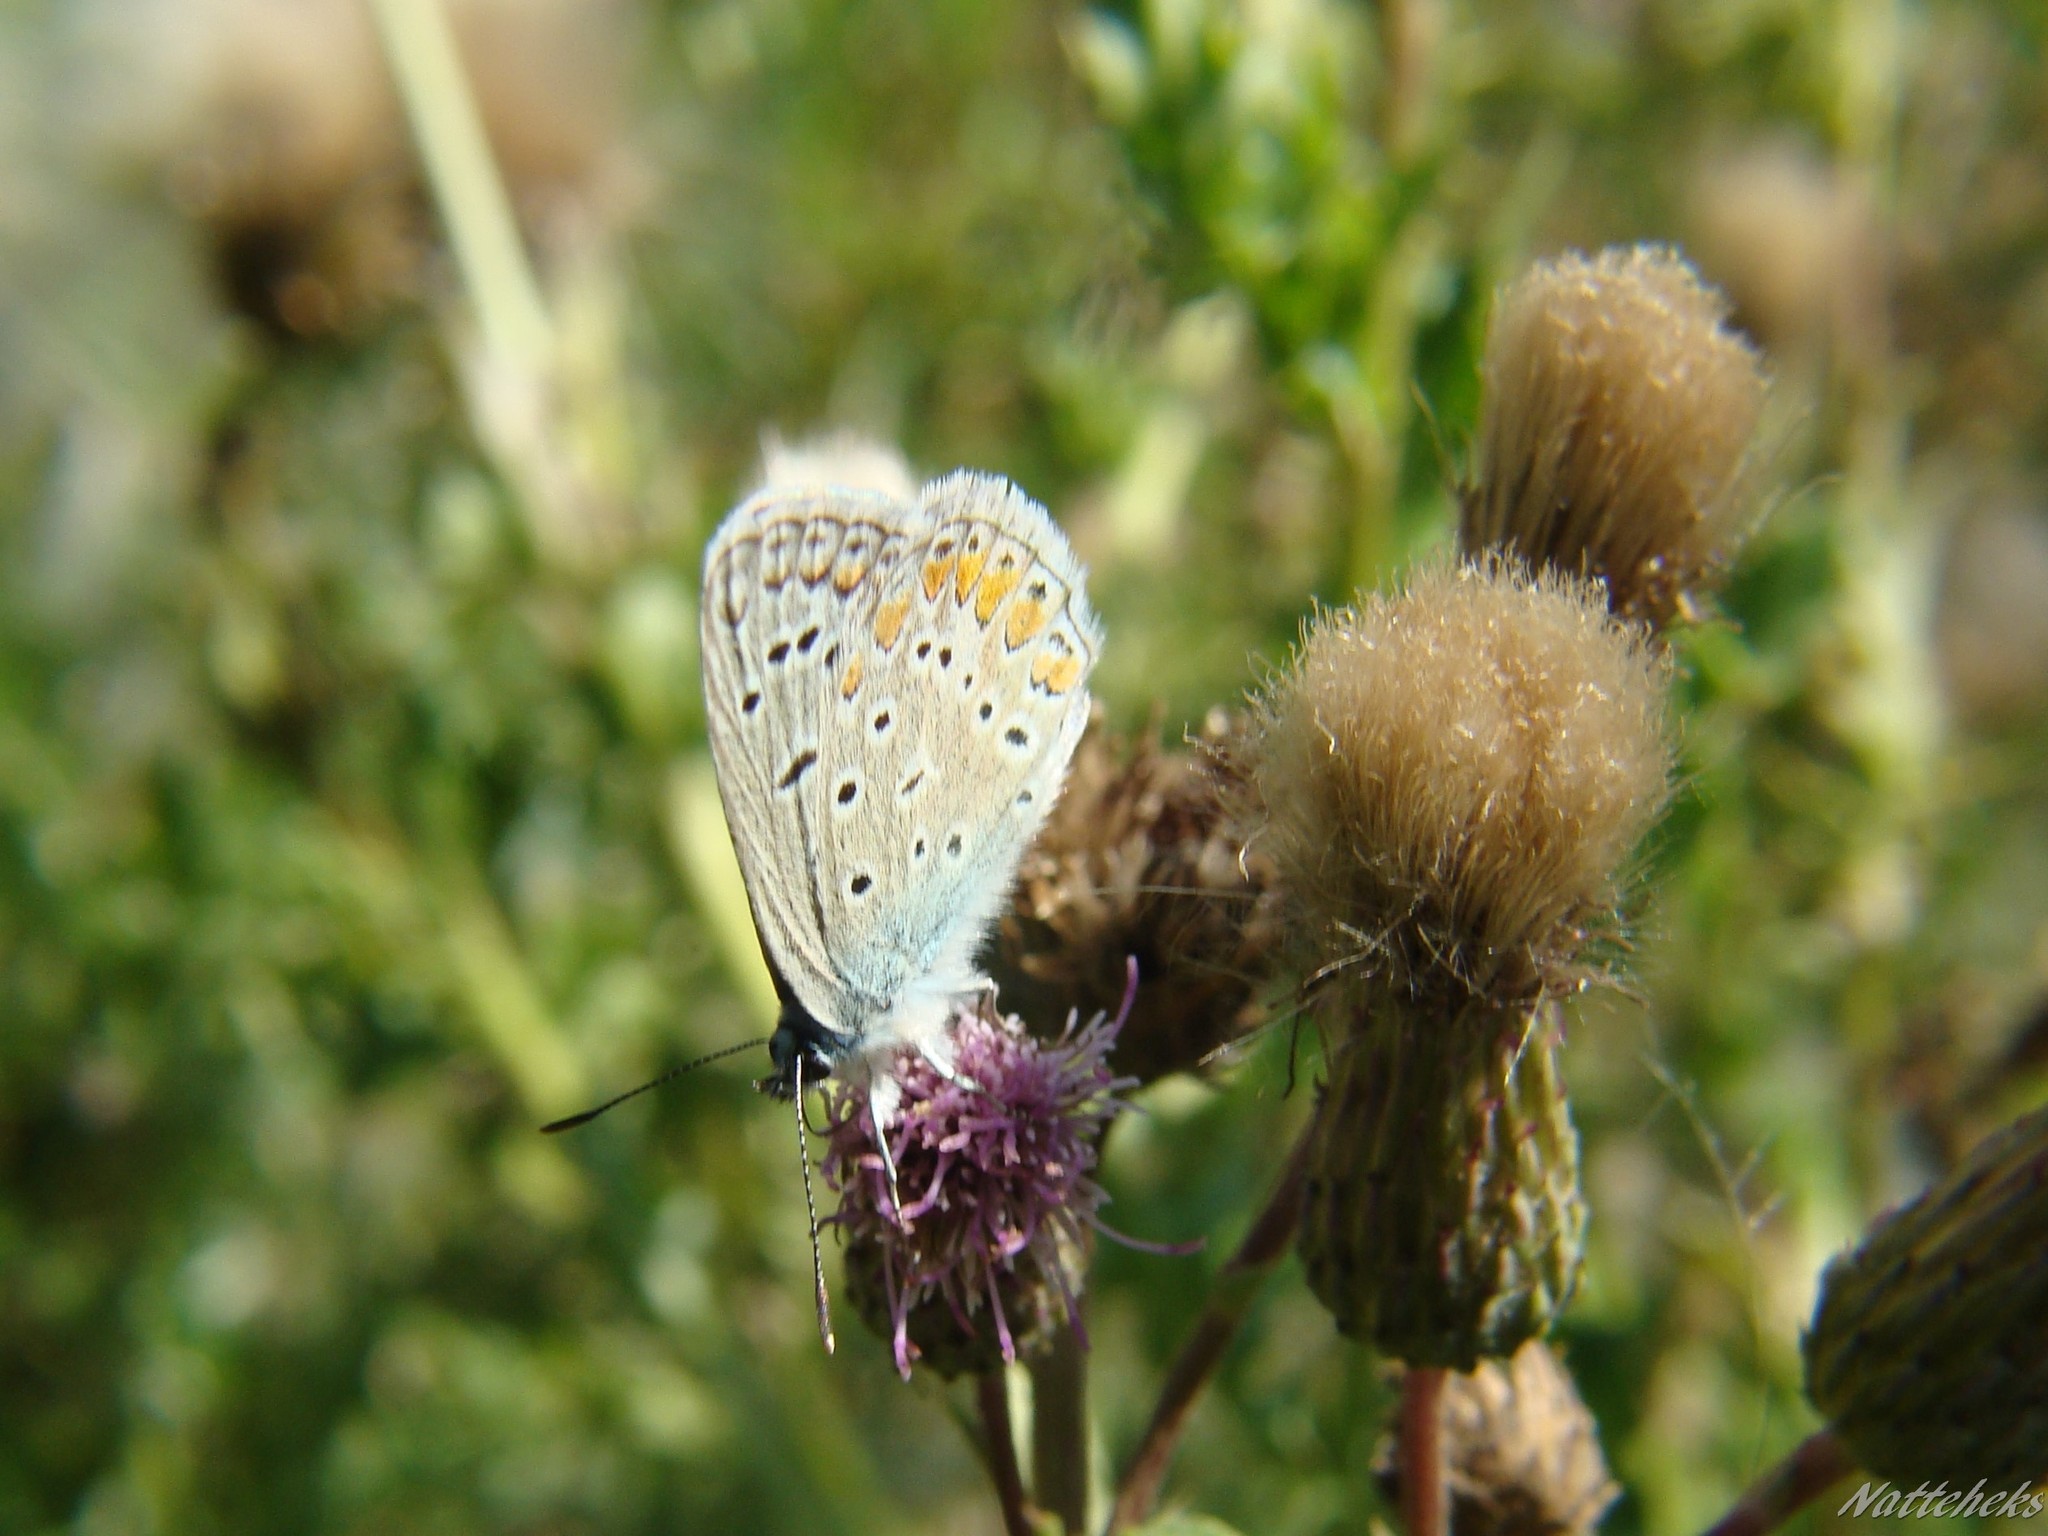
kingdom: Animalia
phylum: Arthropoda
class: Insecta
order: Lepidoptera
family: Lycaenidae
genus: Polyommatus
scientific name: Polyommatus icarus
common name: Common blue
